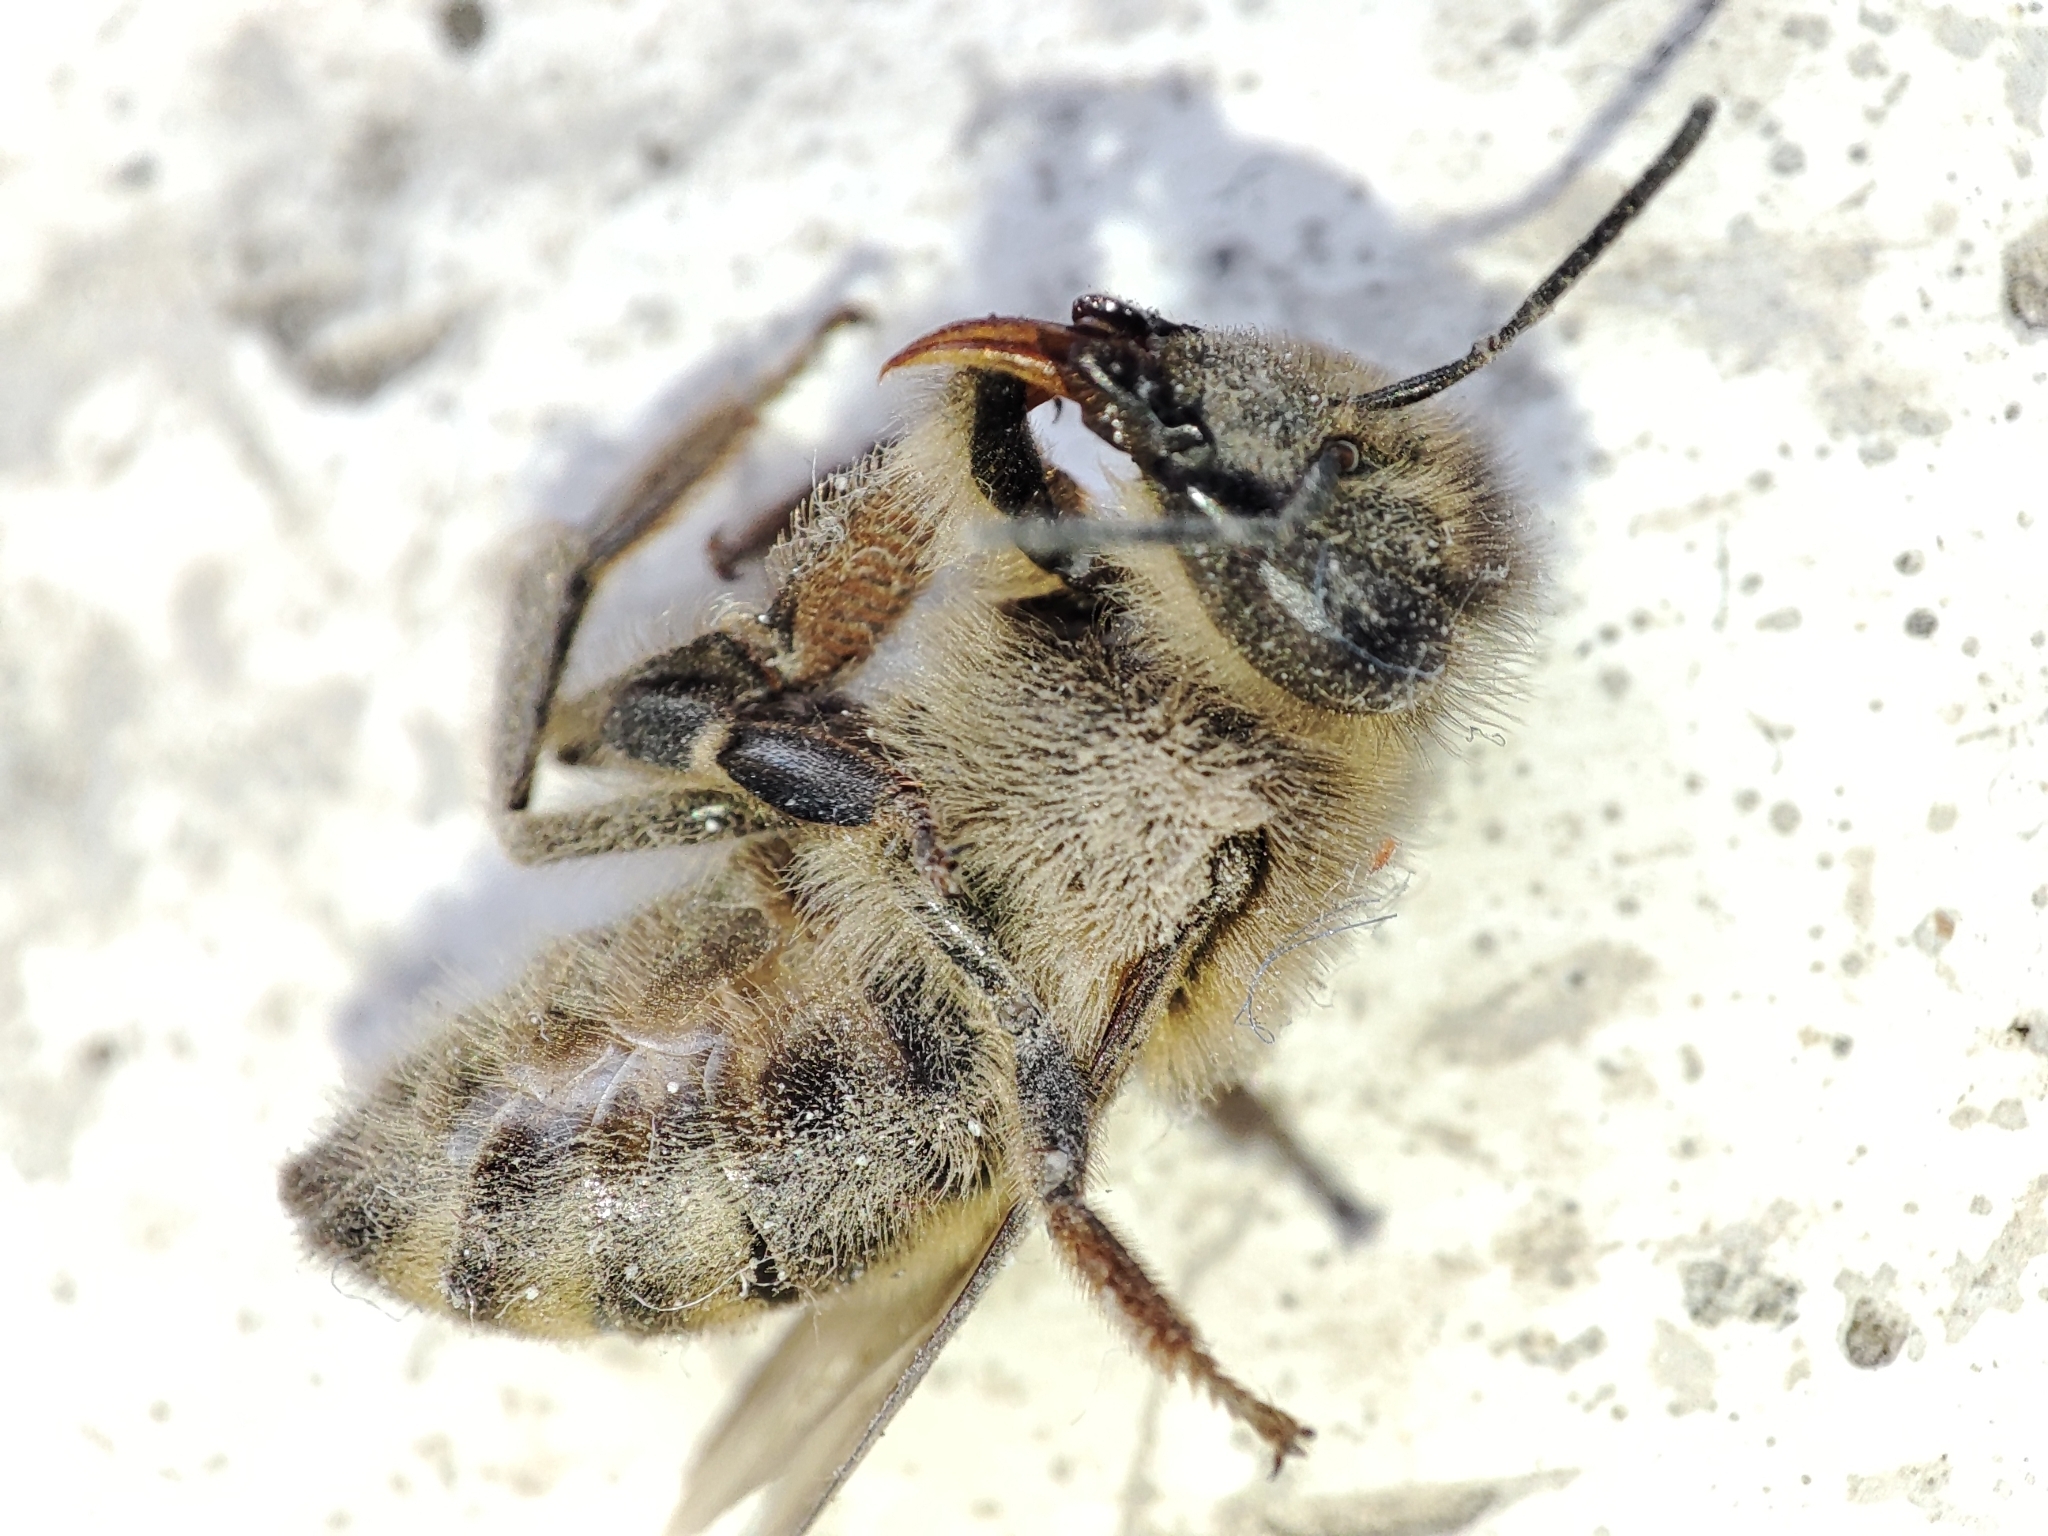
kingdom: Animalia
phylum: Arthropoda
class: Insecta
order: Hymenoptera
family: Apidae
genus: Apis
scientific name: Apis mellifera
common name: Honey bee
